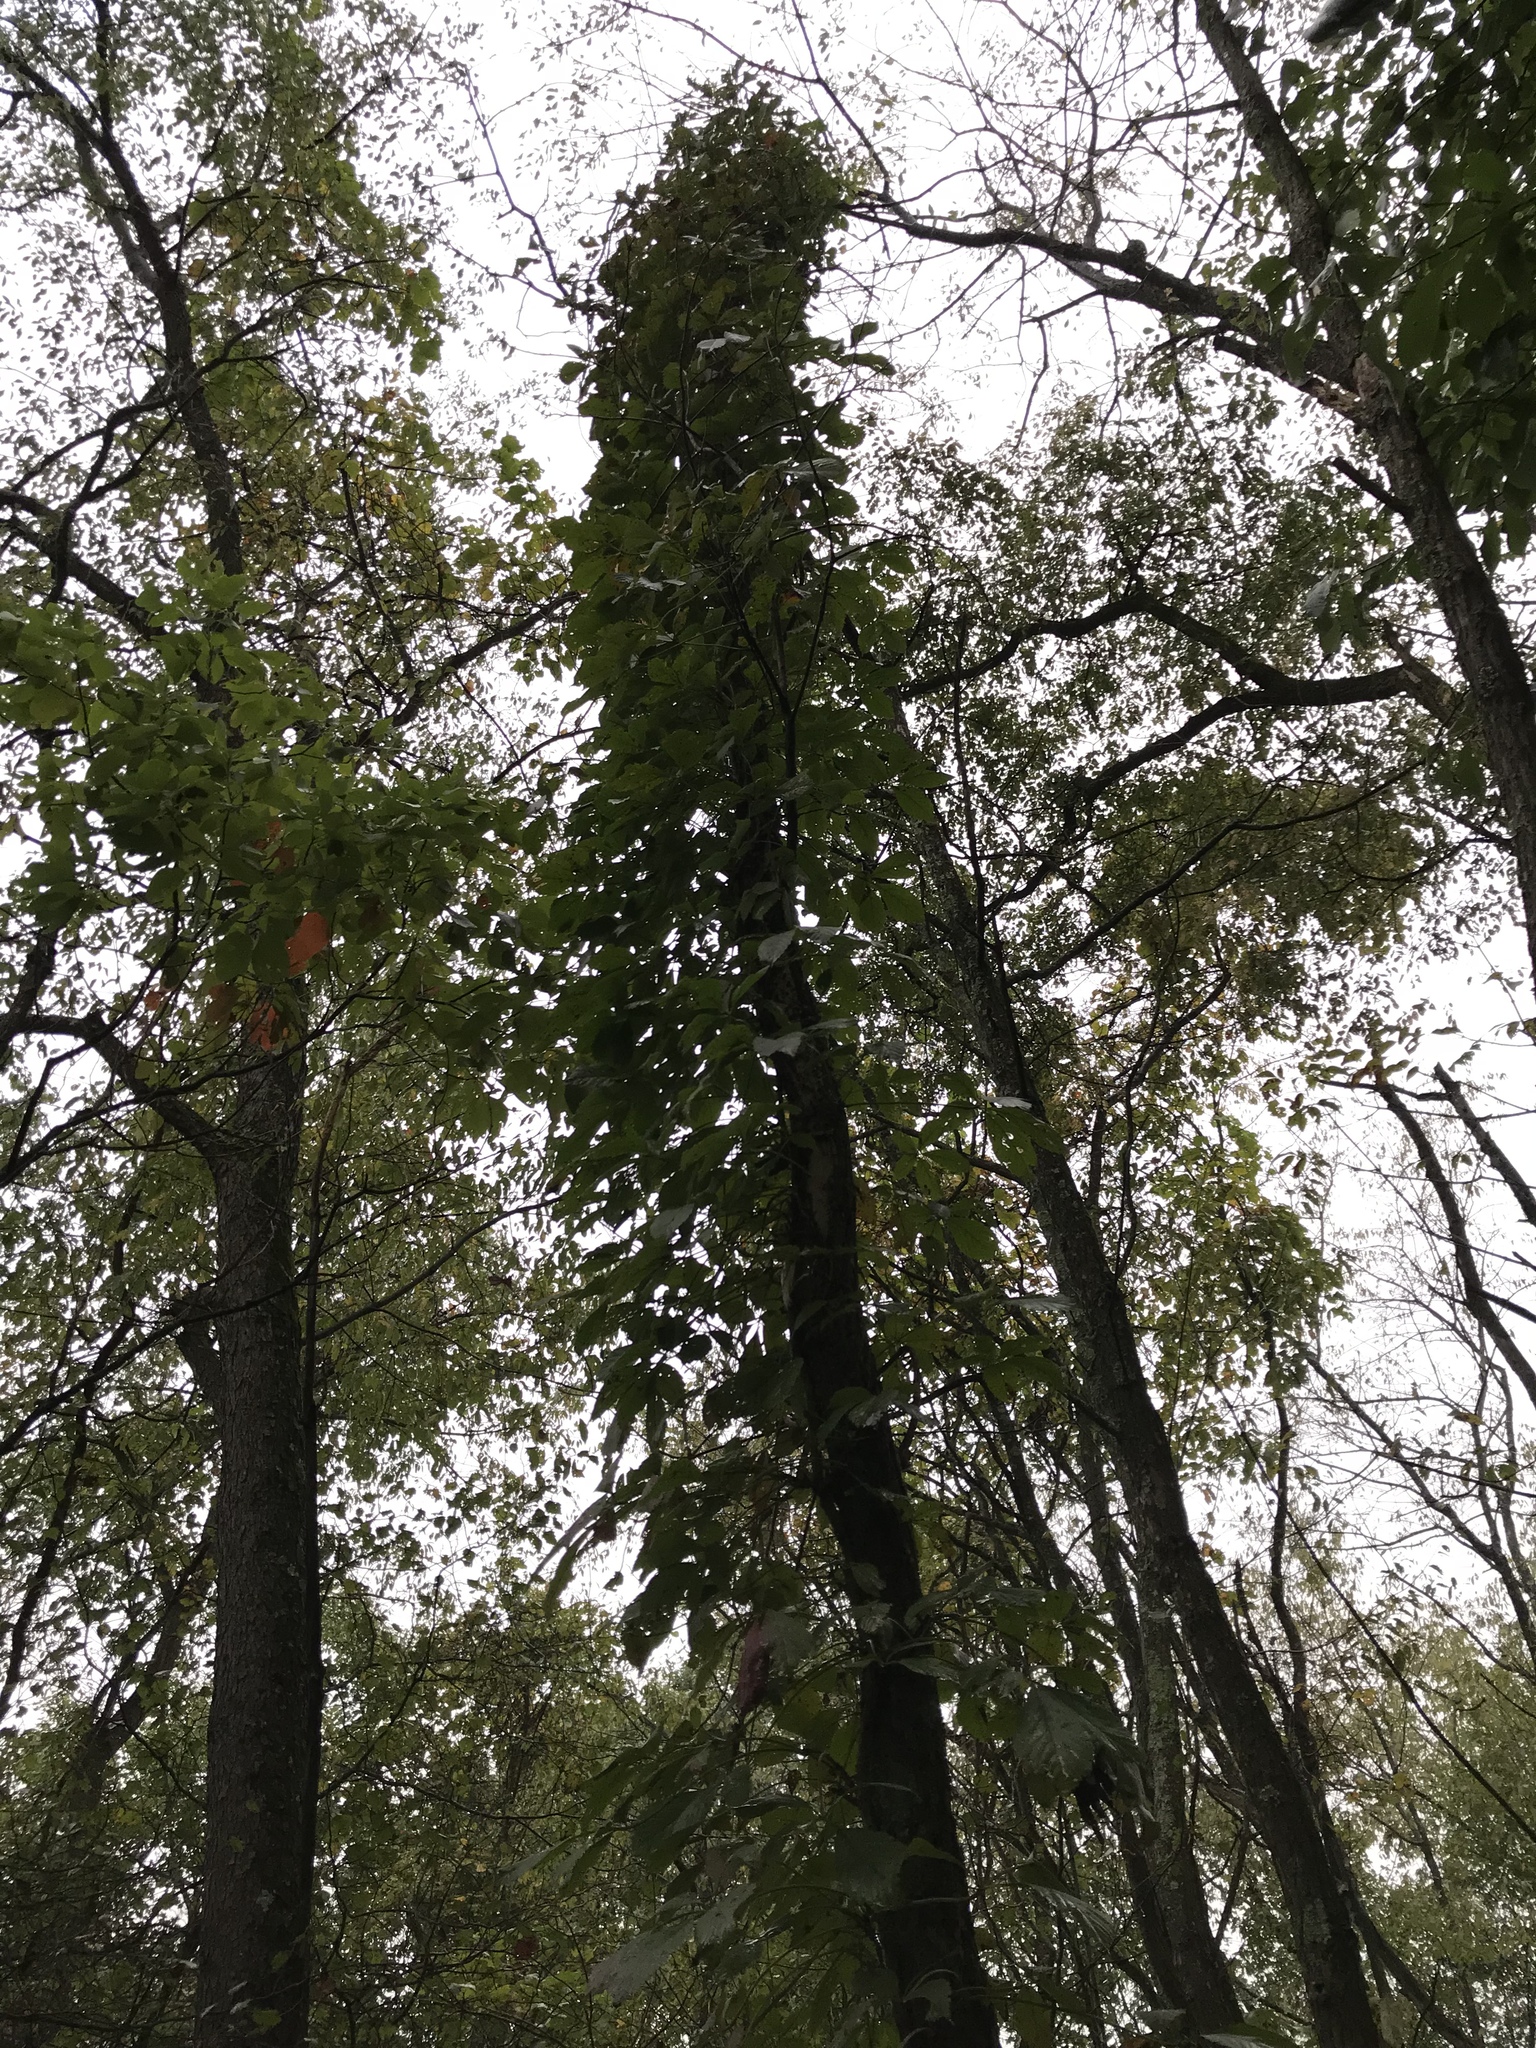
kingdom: Plantae
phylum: Tracheophyta
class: Magnoliopsida
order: Vitales
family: Vitaceae
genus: Parthenocissus
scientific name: Parthenocissus quinquefolia
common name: Virginia-creeper
